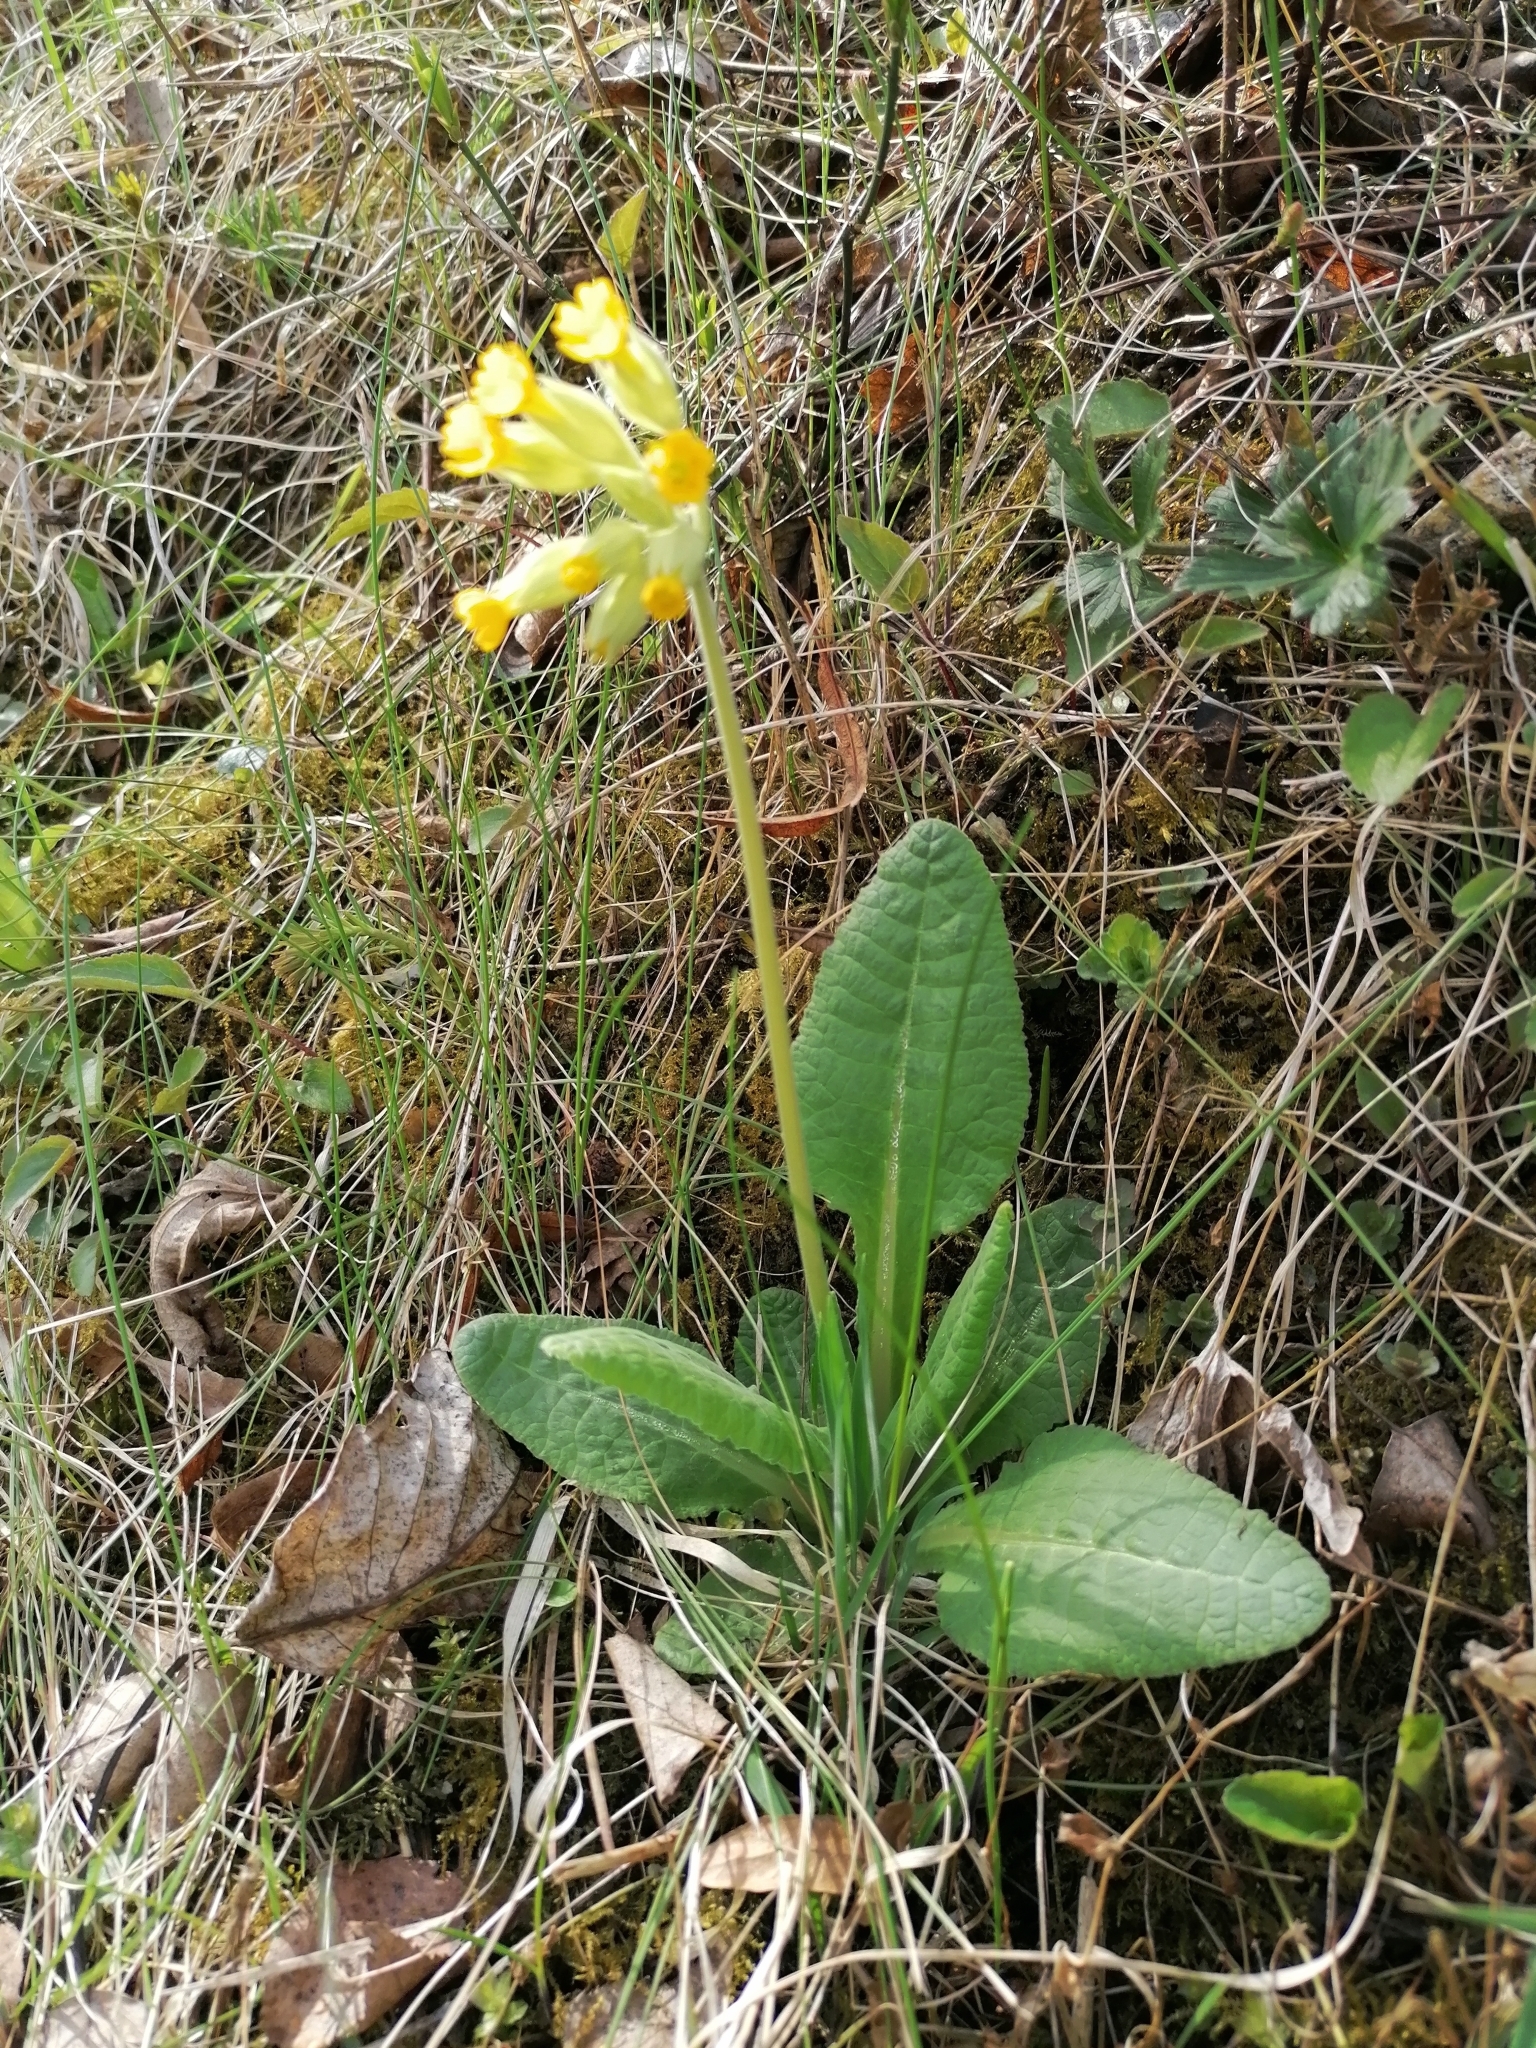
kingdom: Plantae
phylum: Tracheophyta
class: Magnoliopsida
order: Ericales
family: Primulaceae
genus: Primula
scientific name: Primula veris
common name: Cowslip
